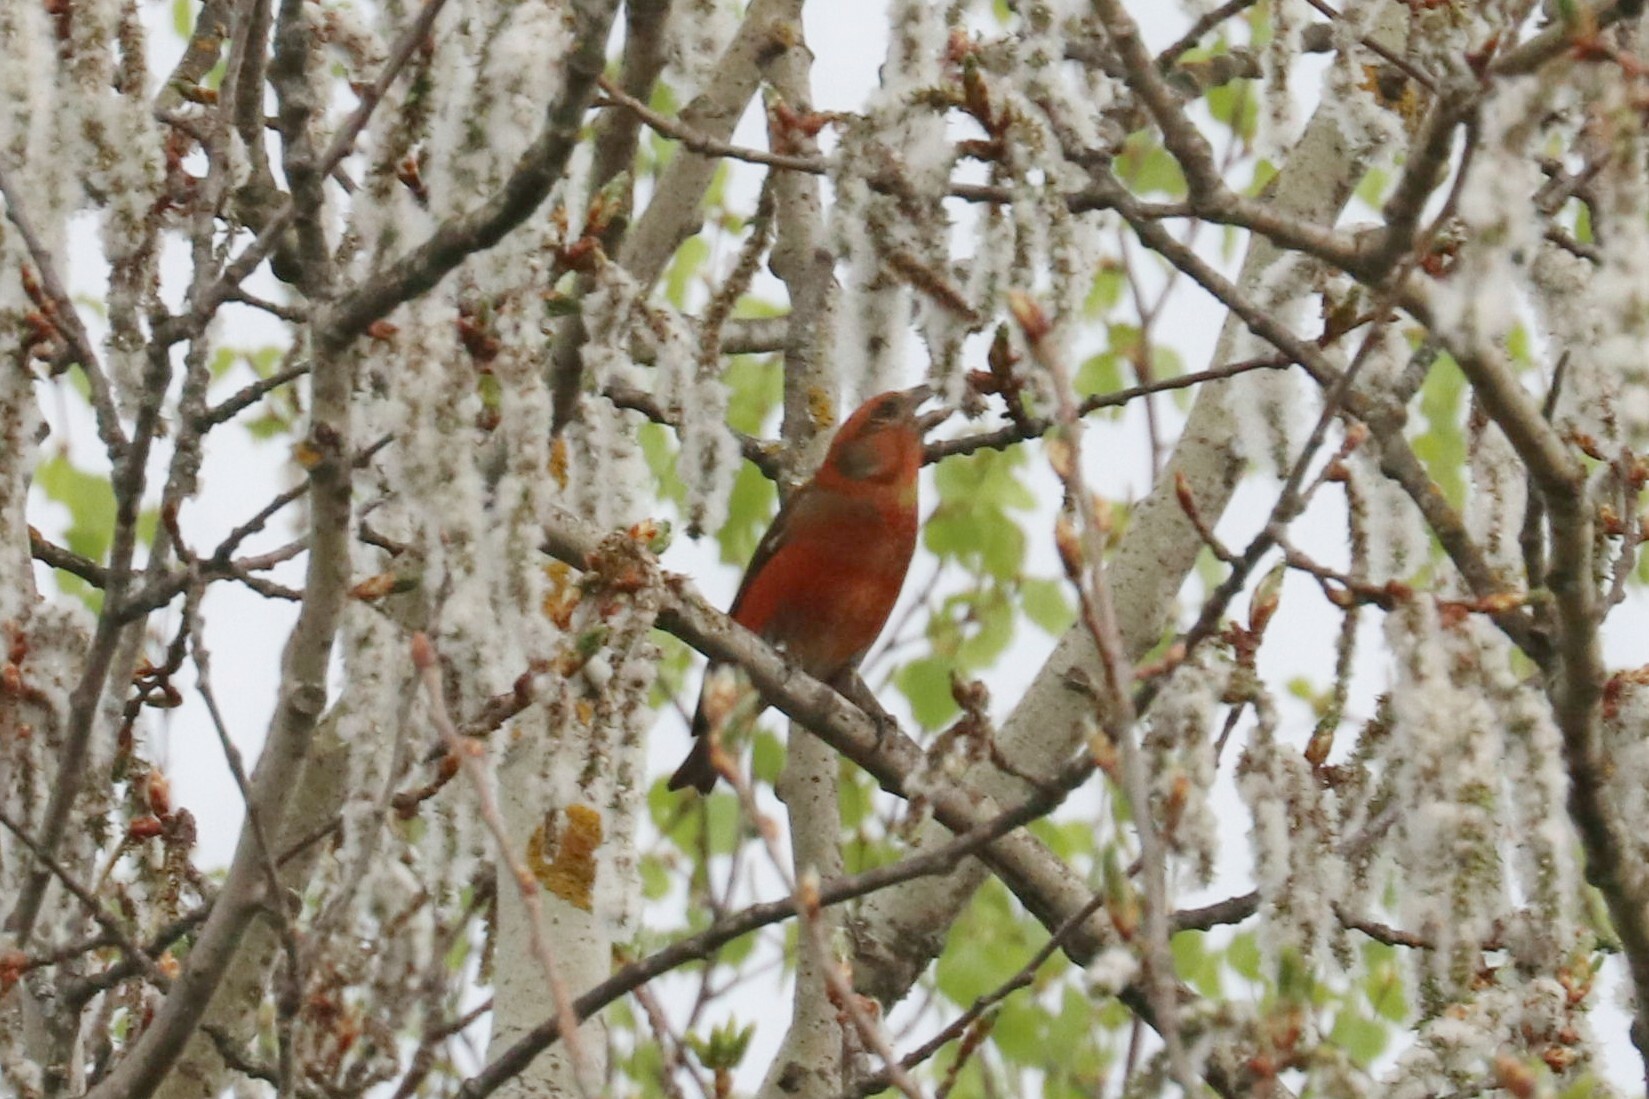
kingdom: Animalia
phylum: Chordata
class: Aves
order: Passeriformes
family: Fringillidae
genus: Loxia
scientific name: Loxia curvirostra
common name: Red crossbill
